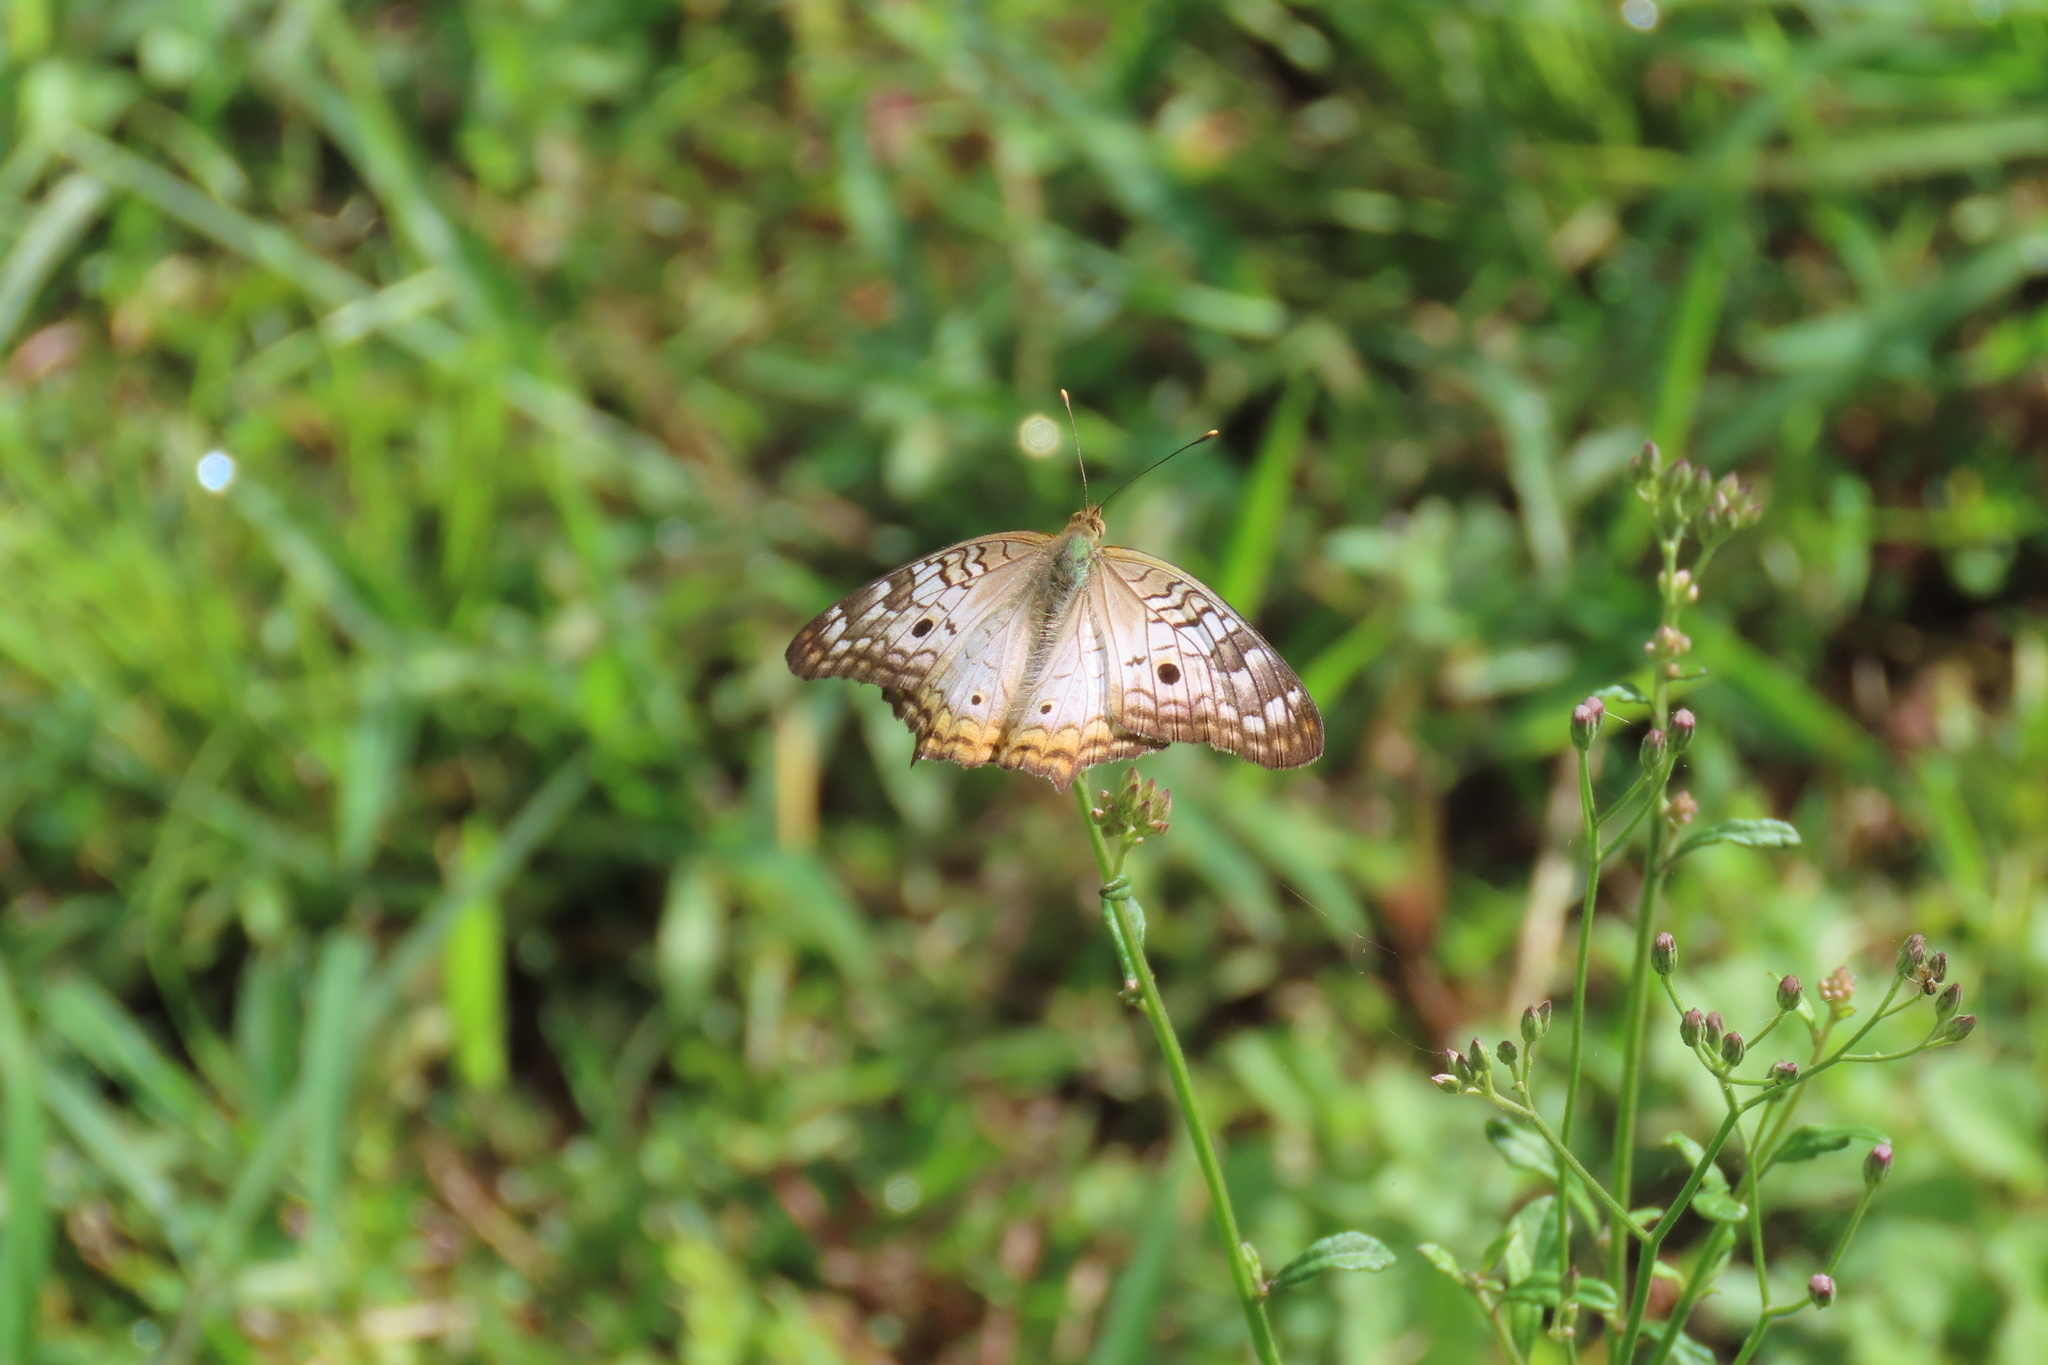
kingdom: Animalia
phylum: Arthropoda
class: Insecta
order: Lepidoptera
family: Nymphalidae
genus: Anartia
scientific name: Anartia jatrophae
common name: White peacock
